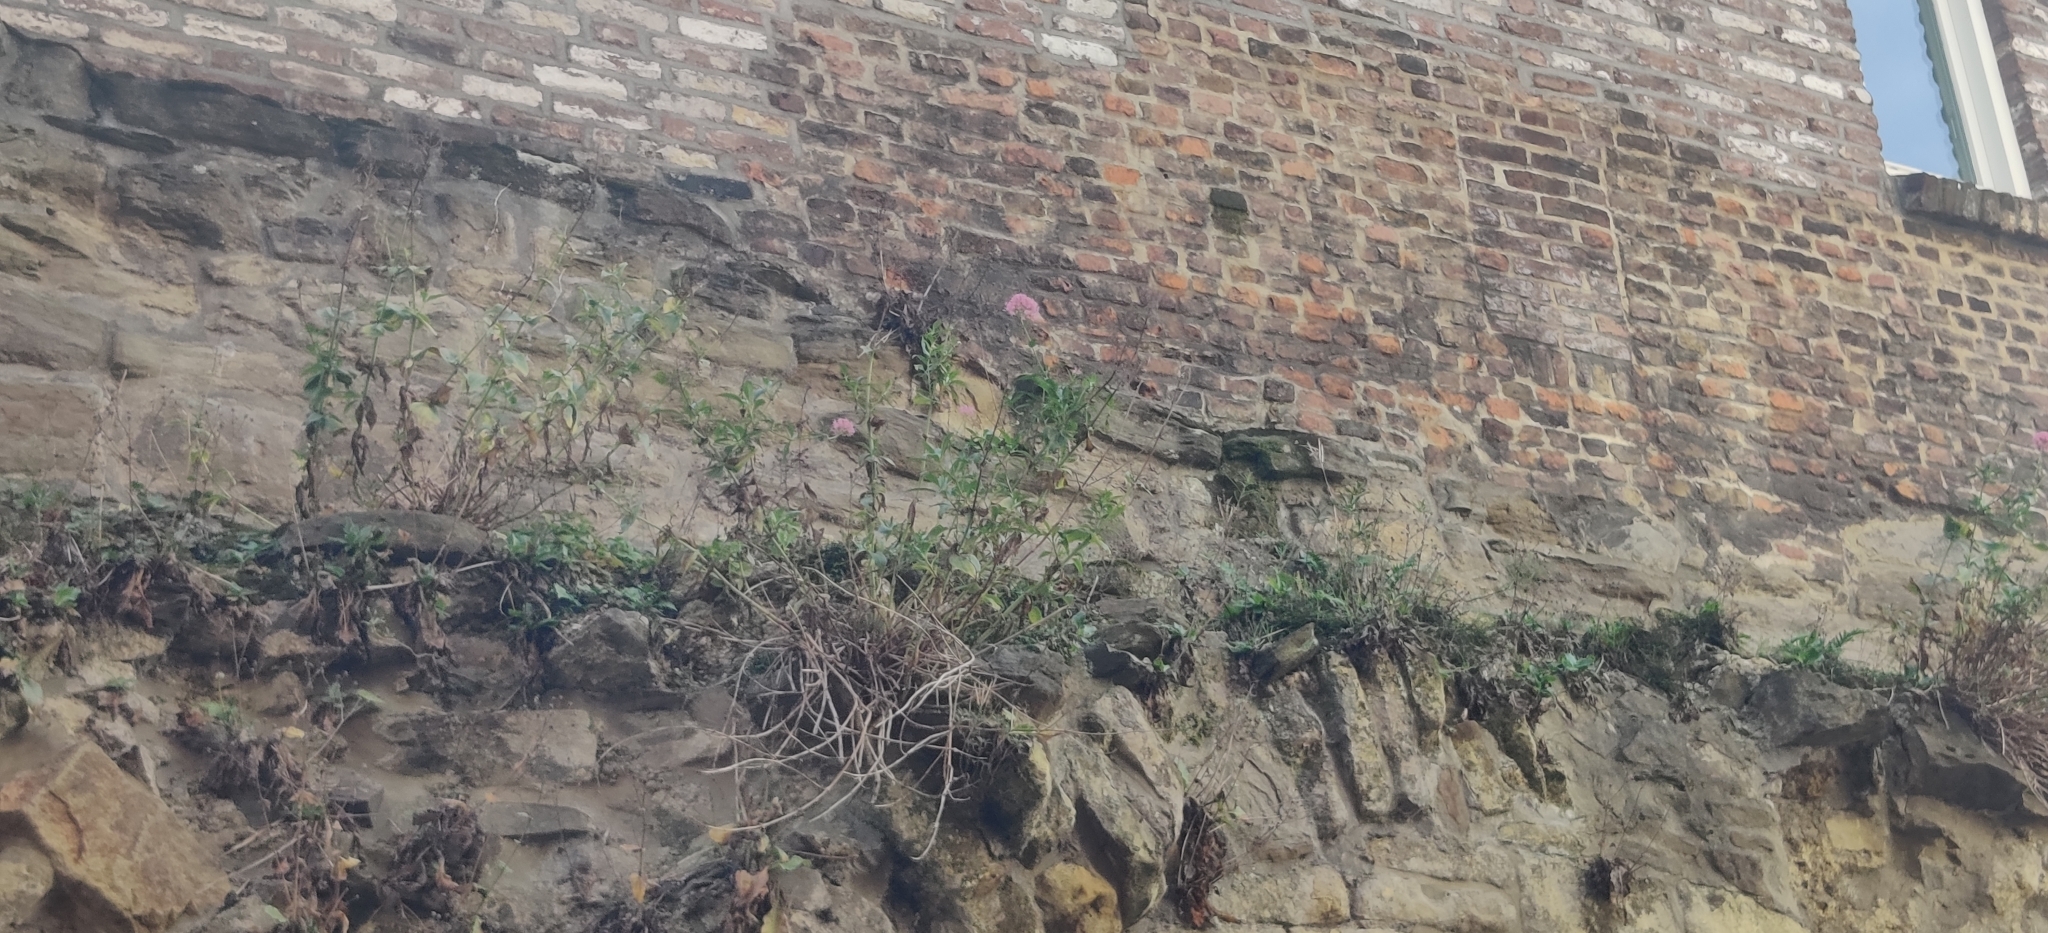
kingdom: Plantae
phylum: Tracheophyta
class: Magnoliopsida
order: Dipsacales
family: Caprifoliaceae
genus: Centranthus
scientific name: Centranthus ruber
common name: Red valerian
